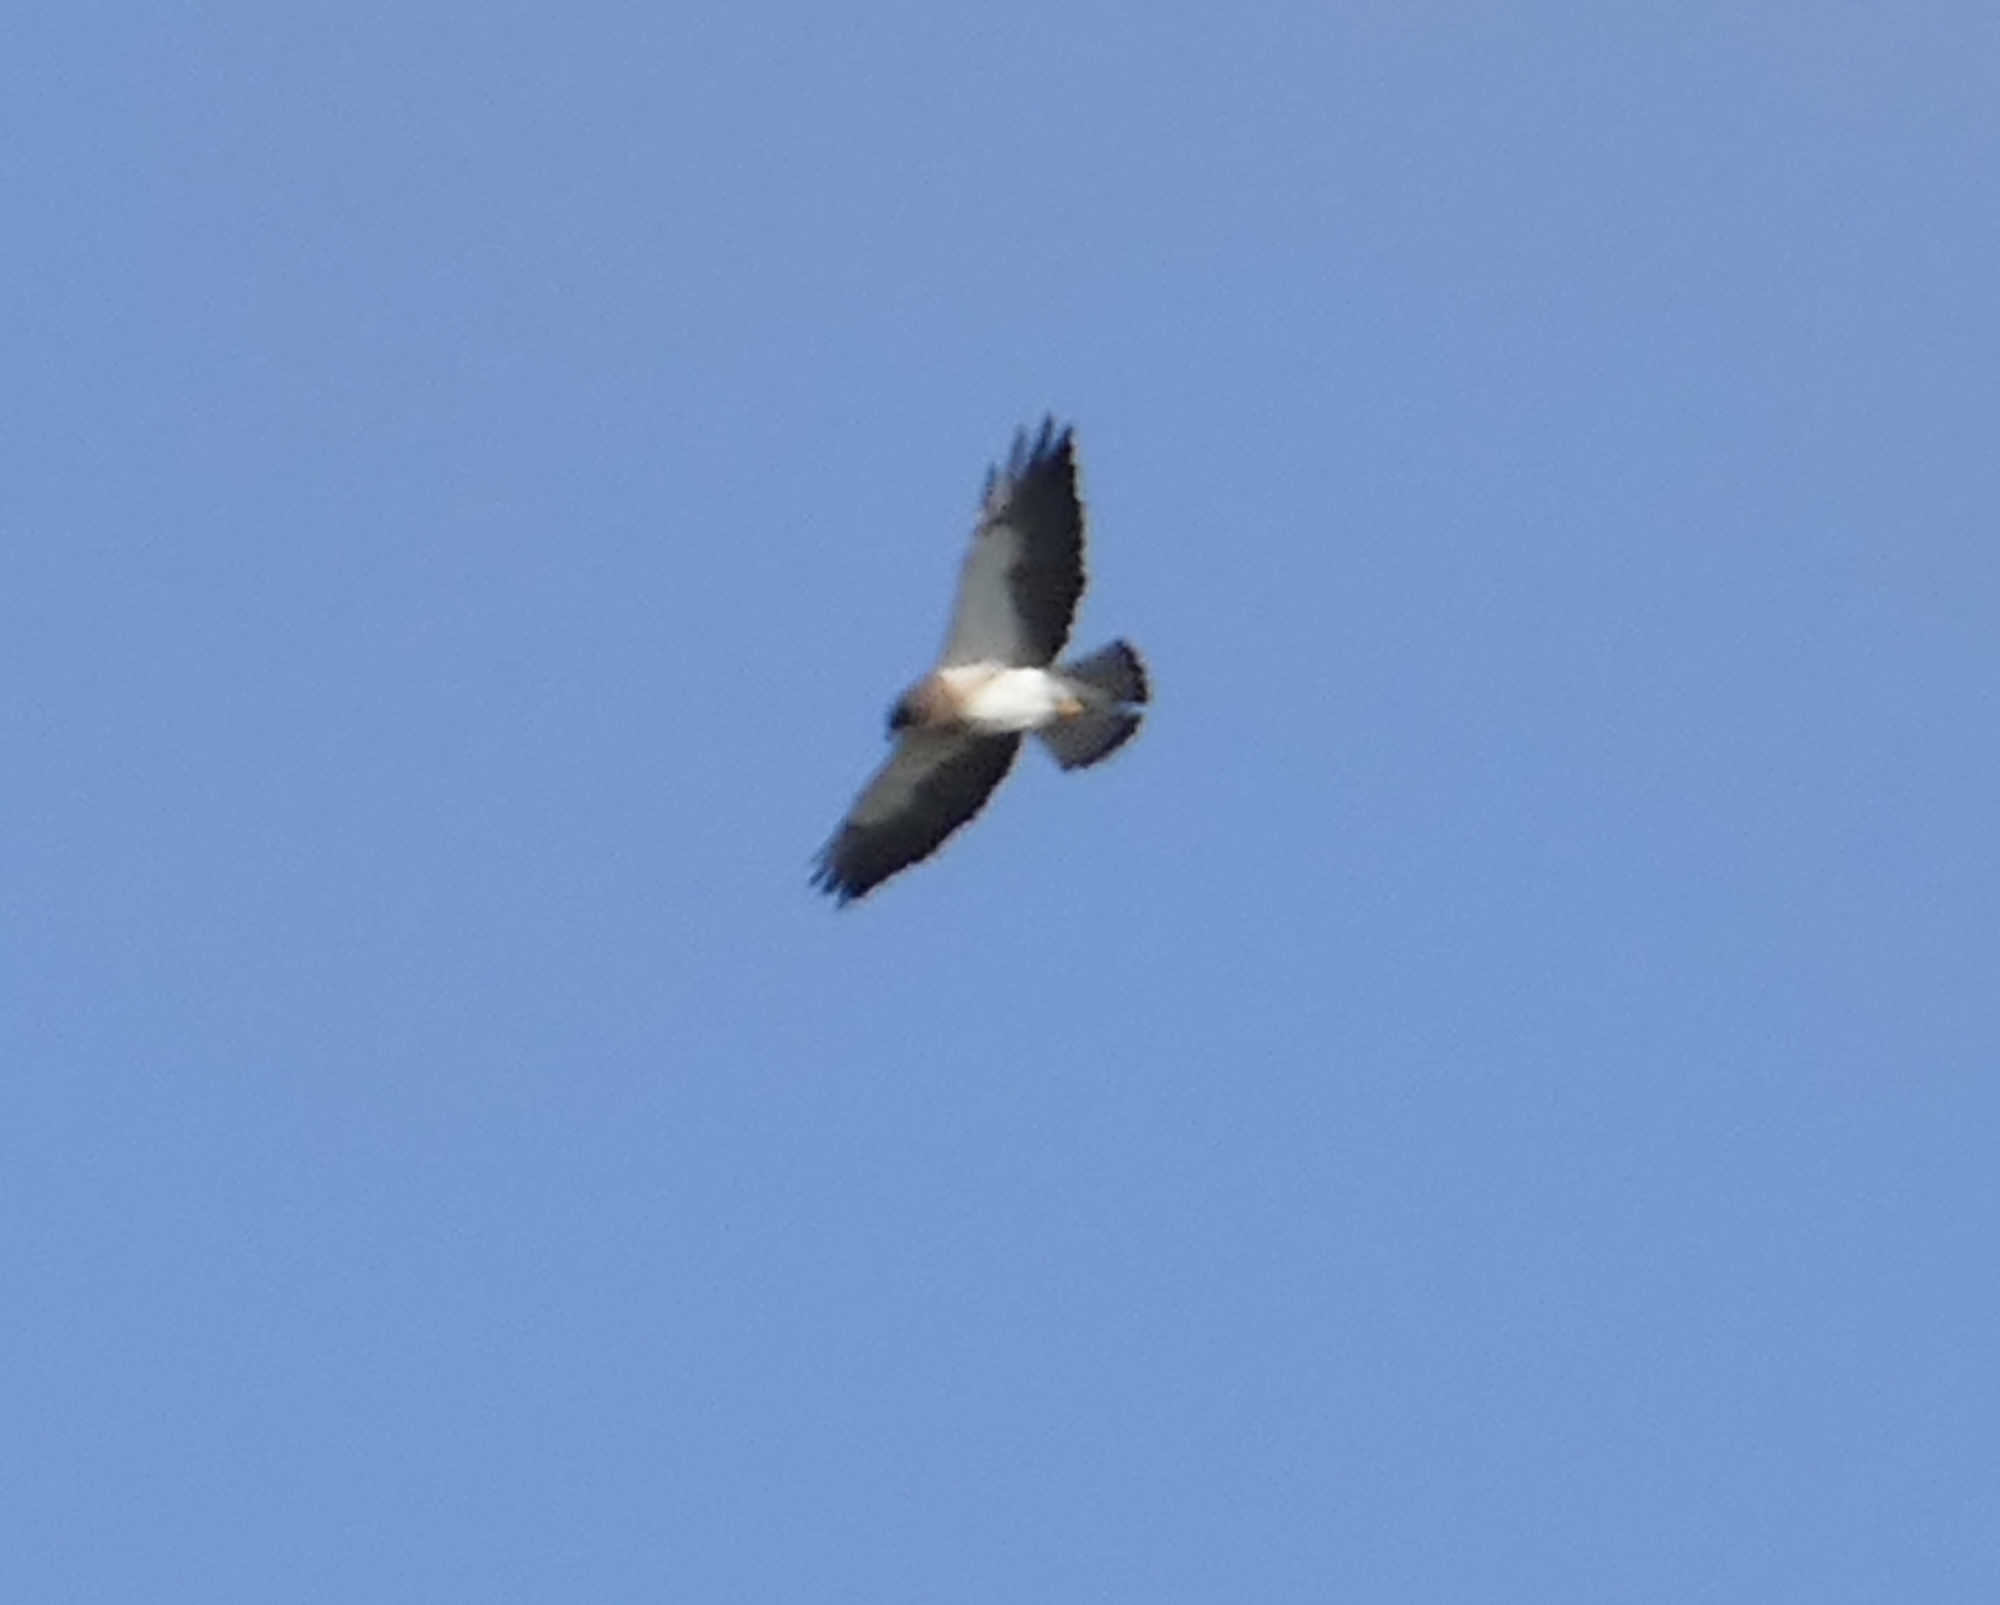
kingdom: Animalia
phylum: Chordata
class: Aves
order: Accipitriformes
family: Accipitridae
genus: Buteo
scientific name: Buteo swainsoni
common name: Swainson's hawk
